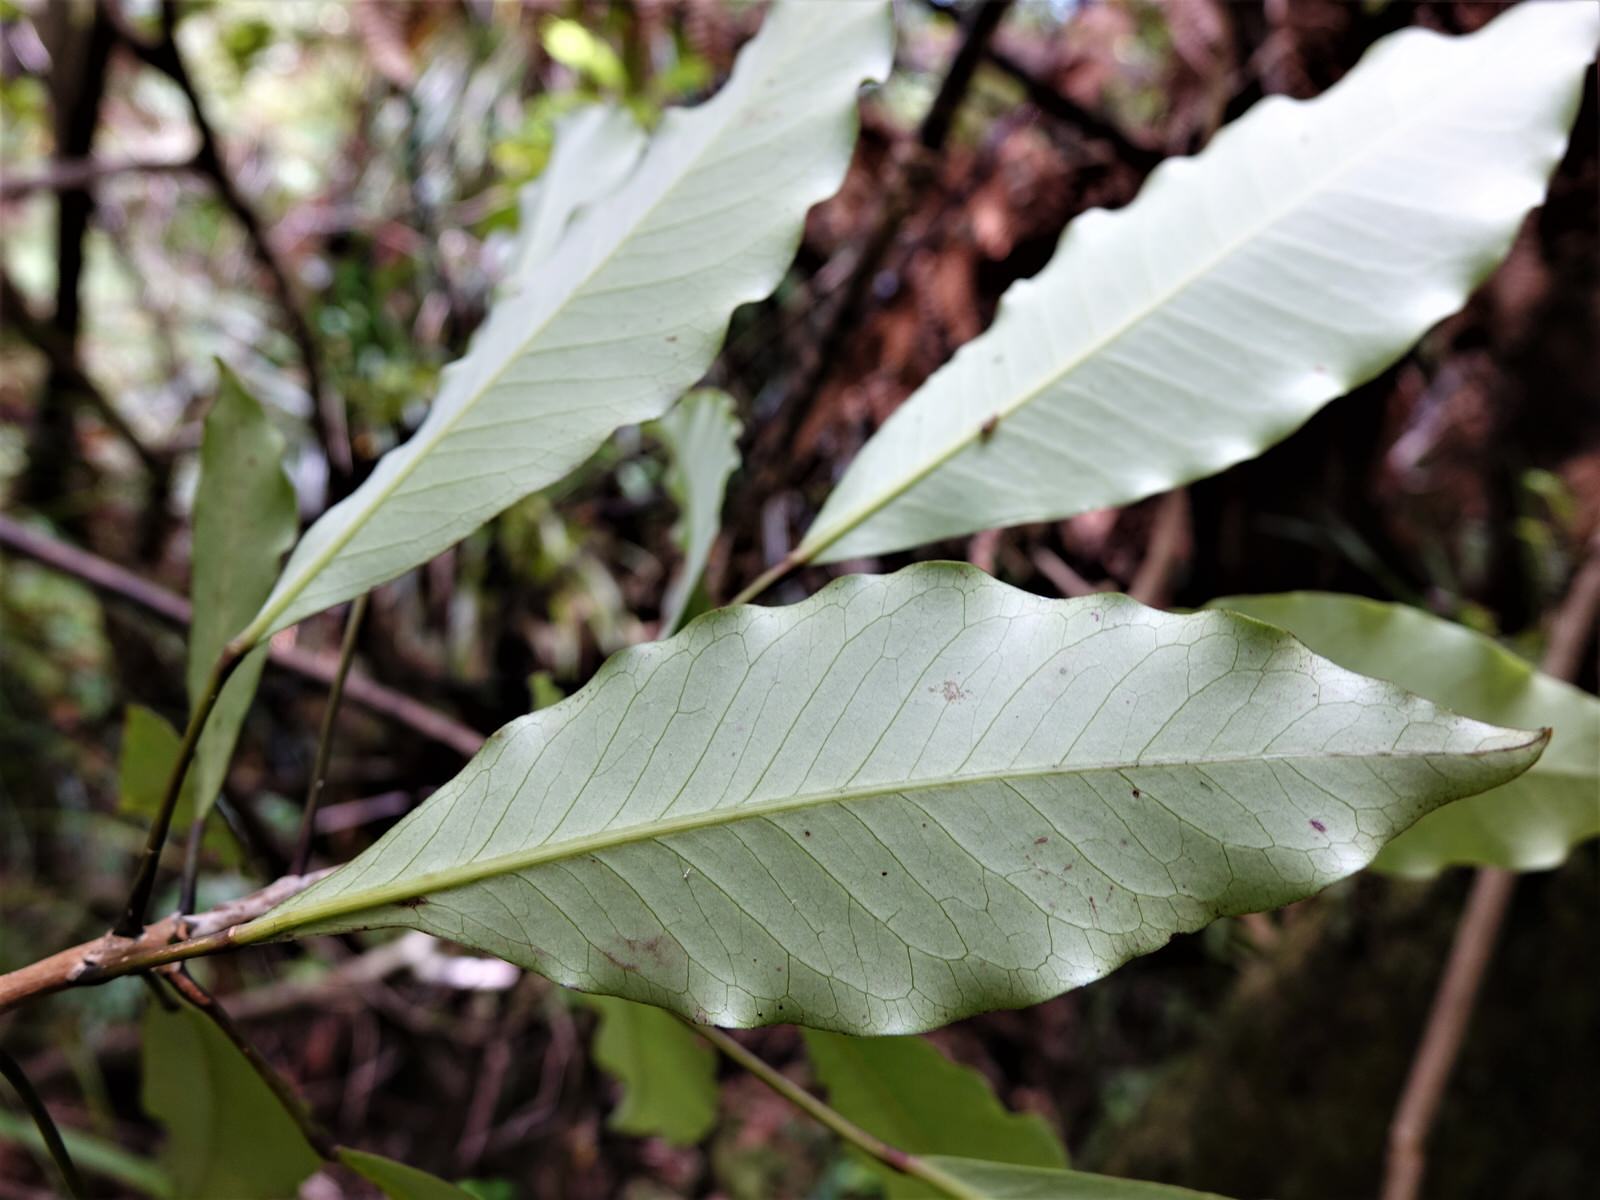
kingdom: Plantae
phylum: Tracheophyta
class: Magnoliopsida
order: Apiales
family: Araliaceae
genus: Raukaua
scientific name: Raukaua edgerleyi
